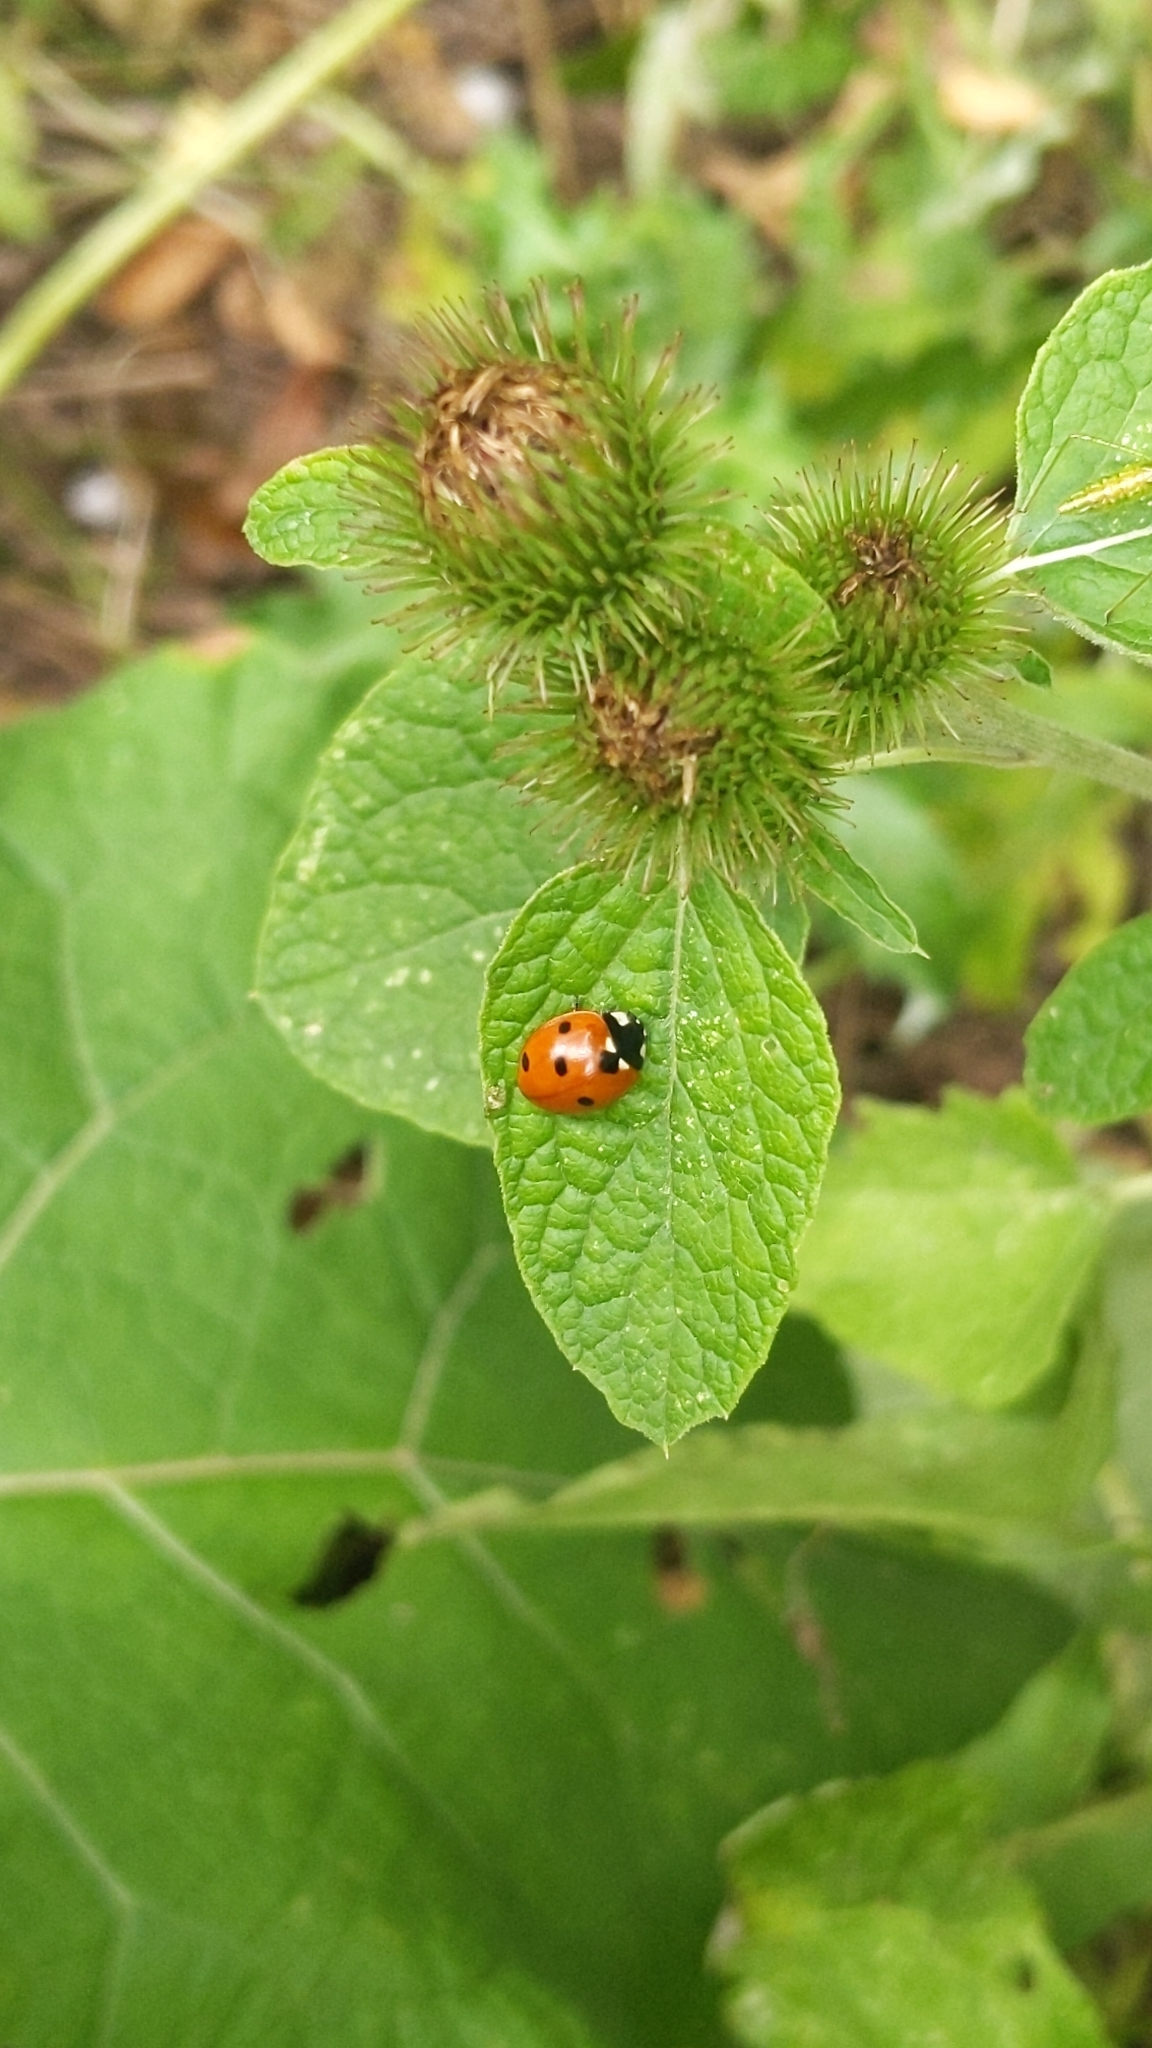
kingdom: Animalia
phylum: Arthropoda
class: Insecta
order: Coleoptera
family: Coccinellidae
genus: Coccinella
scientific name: Coccinella septempunctata
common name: Sevenspotted lady beetle
